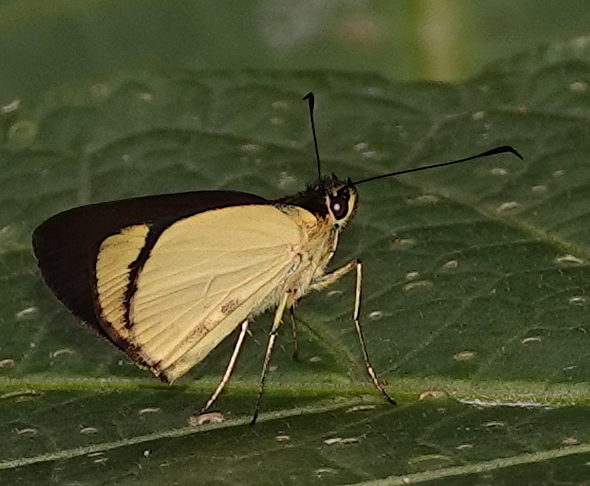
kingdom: Animalia
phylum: Arthropoda
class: Insecta
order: Lepidoptera
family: Hesperiidae
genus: Falga
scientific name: Falga jeconia
